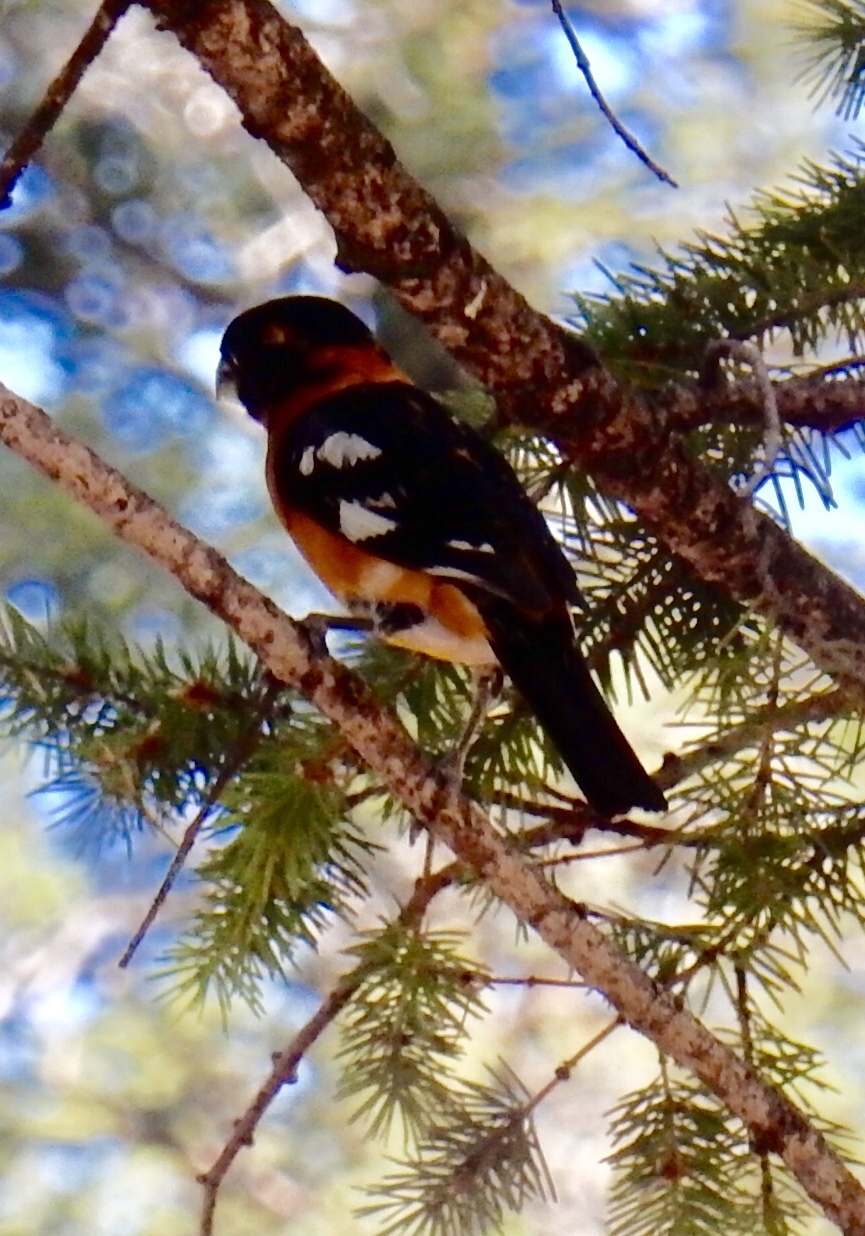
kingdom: Animalia
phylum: Chordata
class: Aves
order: Passeriformes
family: Cardinalidae
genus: Pheucticus
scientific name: Pheucticus melanocephalus
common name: Black-headed grosbeak
